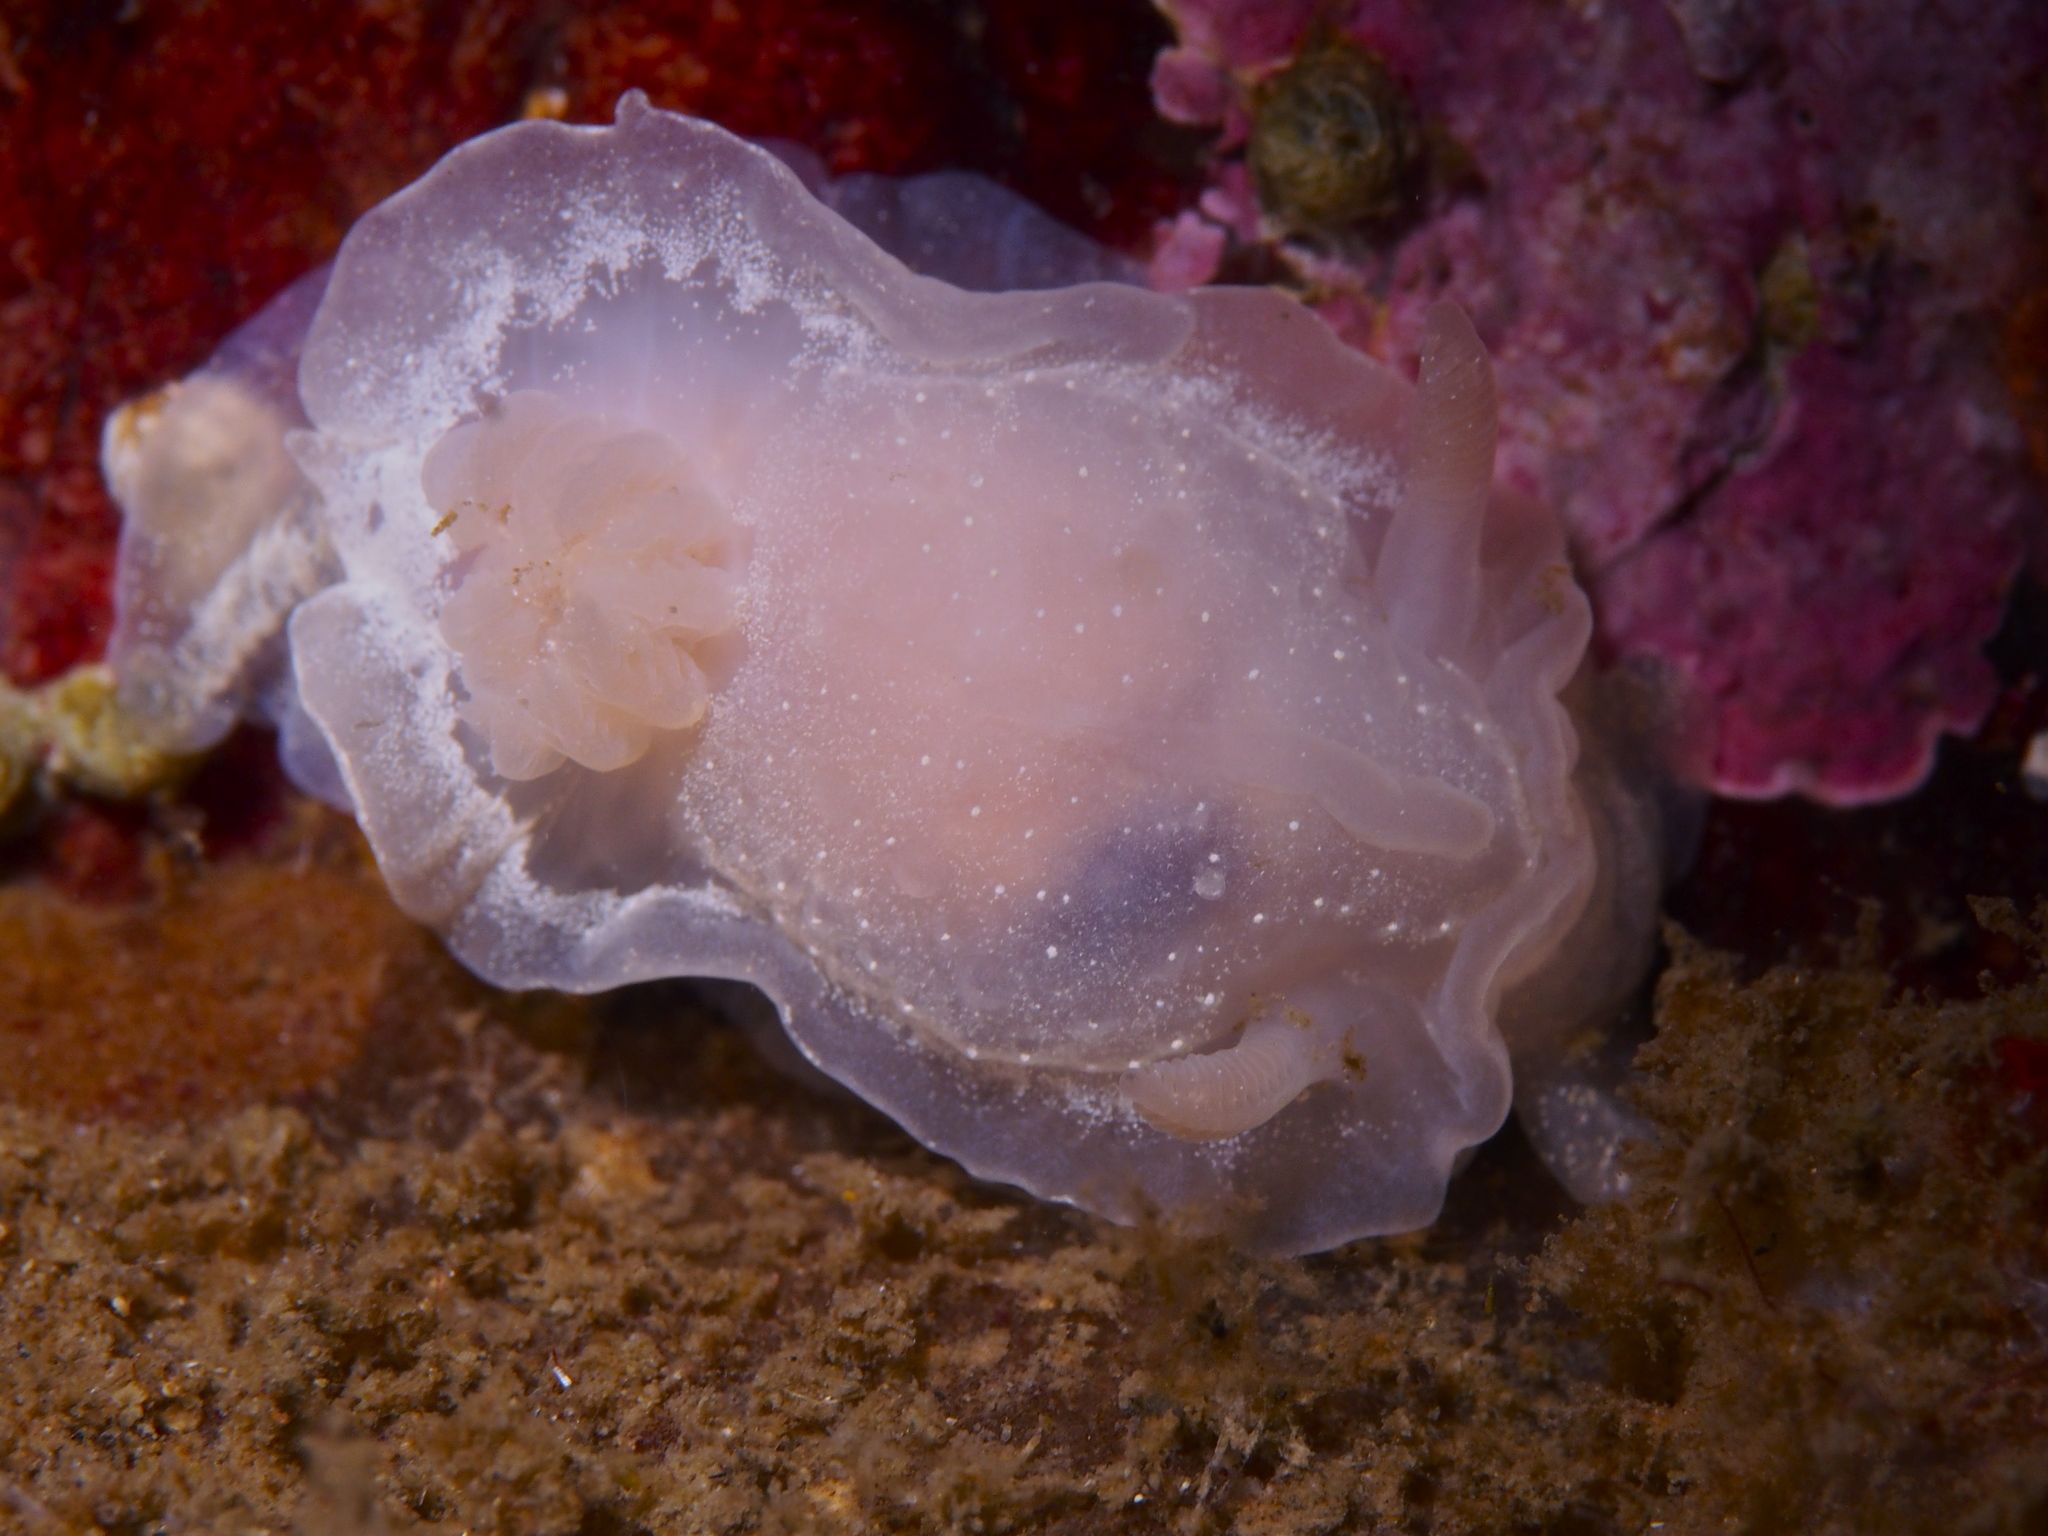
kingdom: Animalia
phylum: Mollusca
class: Gastropoda
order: Nudibranchia
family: Goniodorididae
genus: Okenia
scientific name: Okenia
